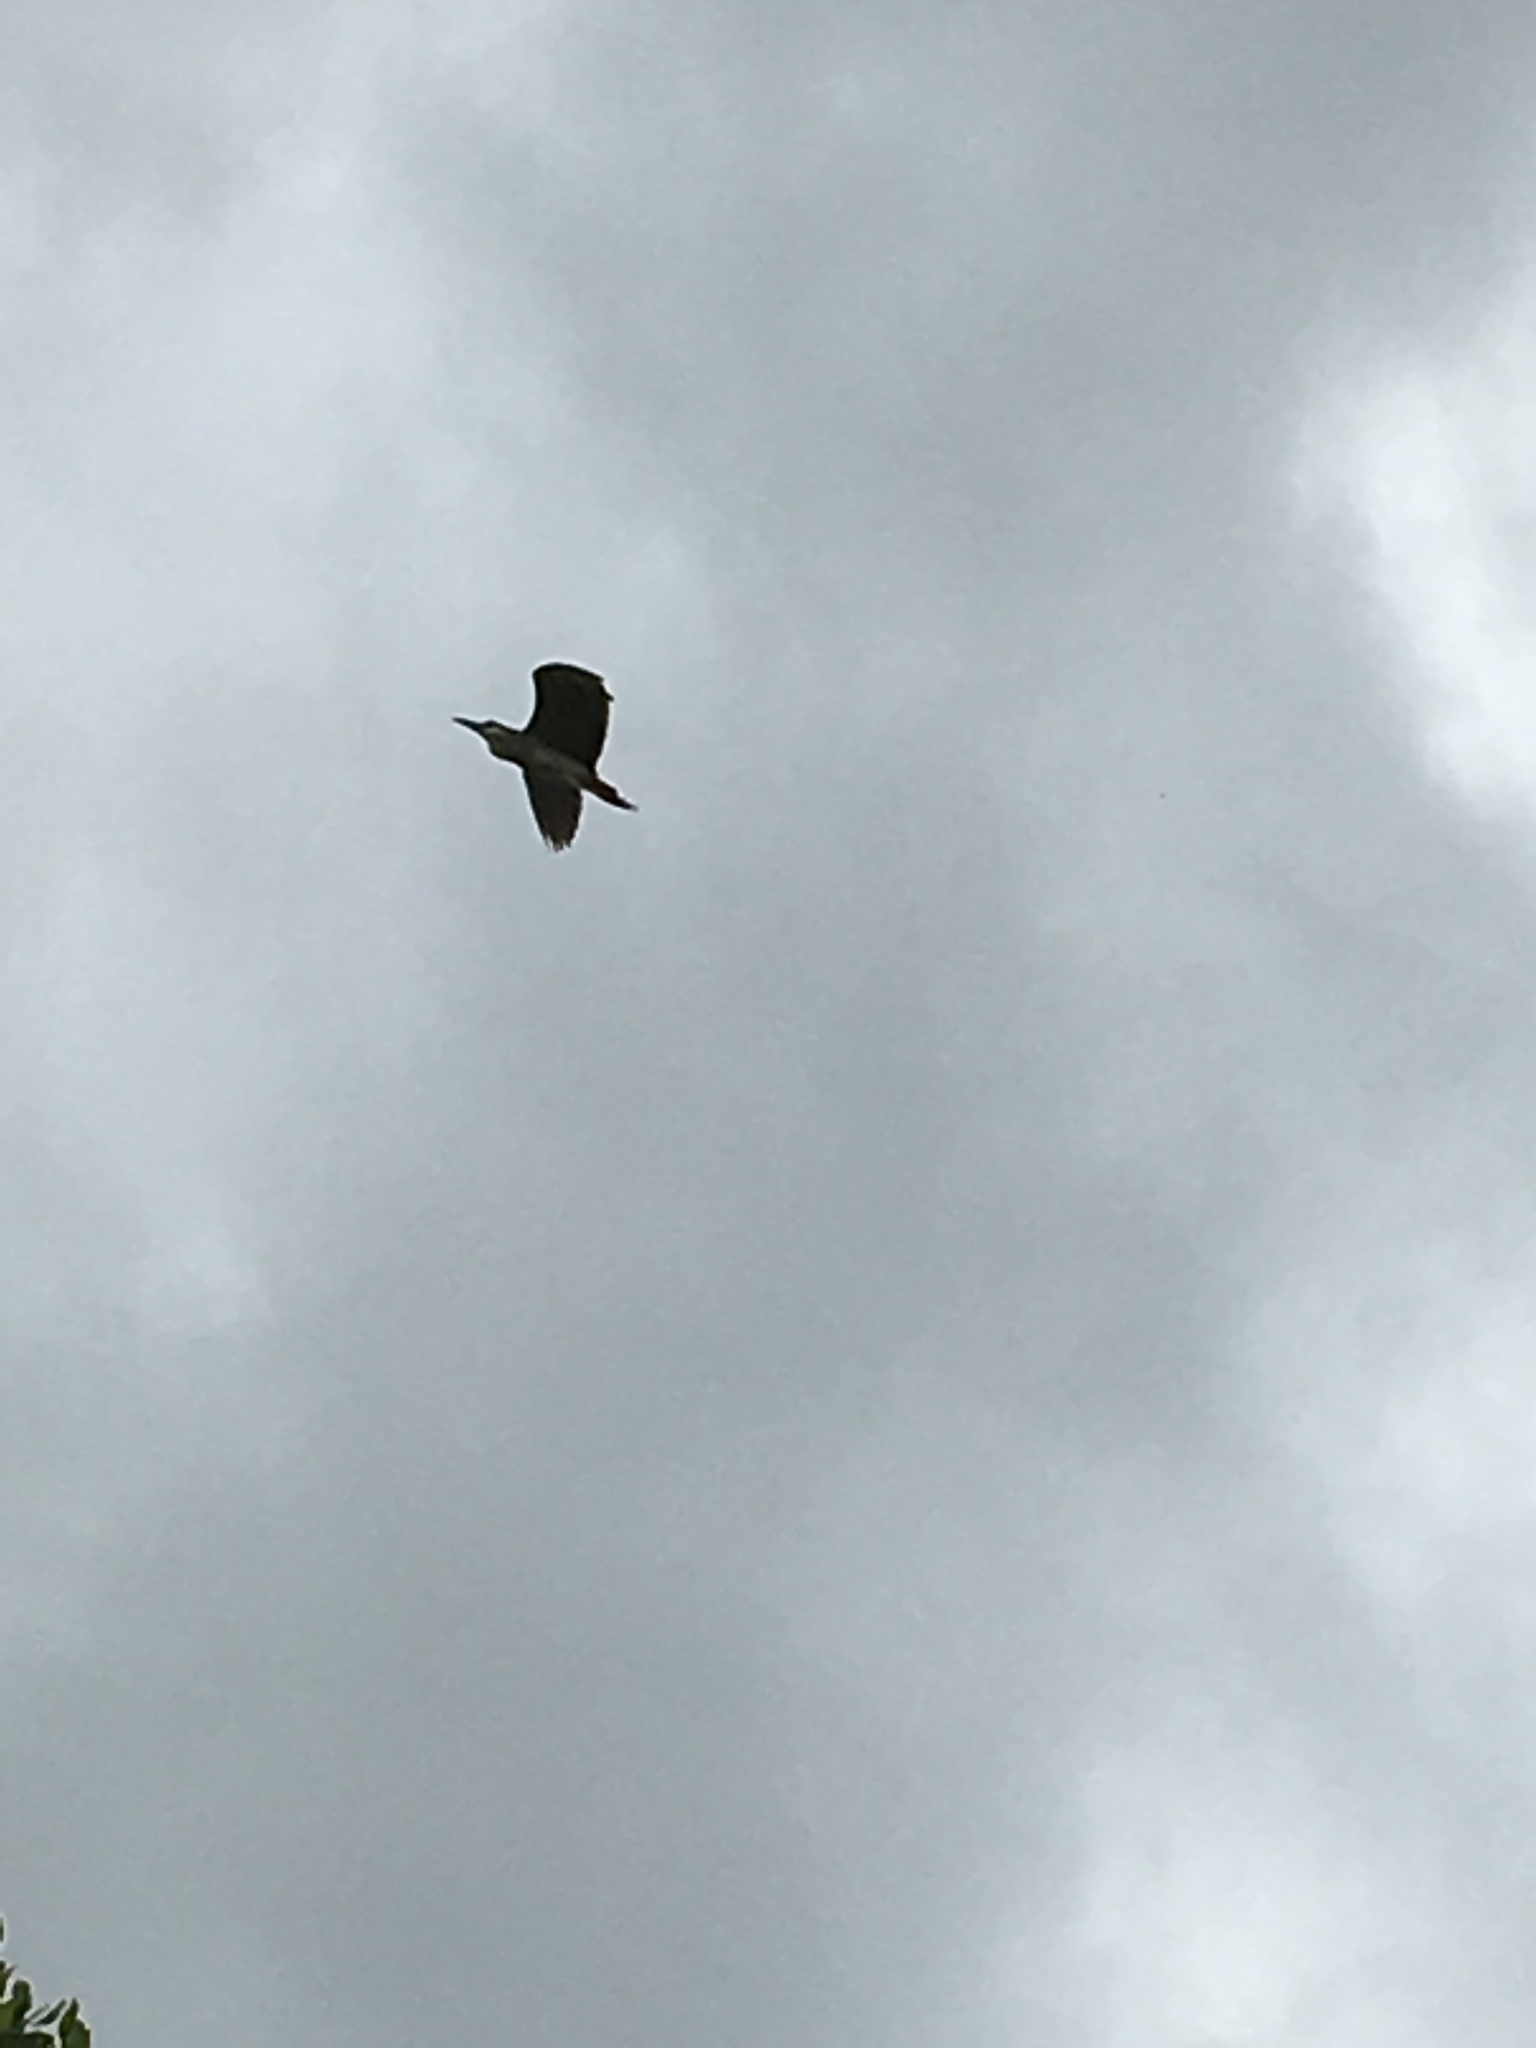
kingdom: Animalia
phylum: Chordata
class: Aves
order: Pelecaniformes
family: Ardeidae
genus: Nycticorax
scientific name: Nycticorax nycticorax
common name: Black-crowned night heron
